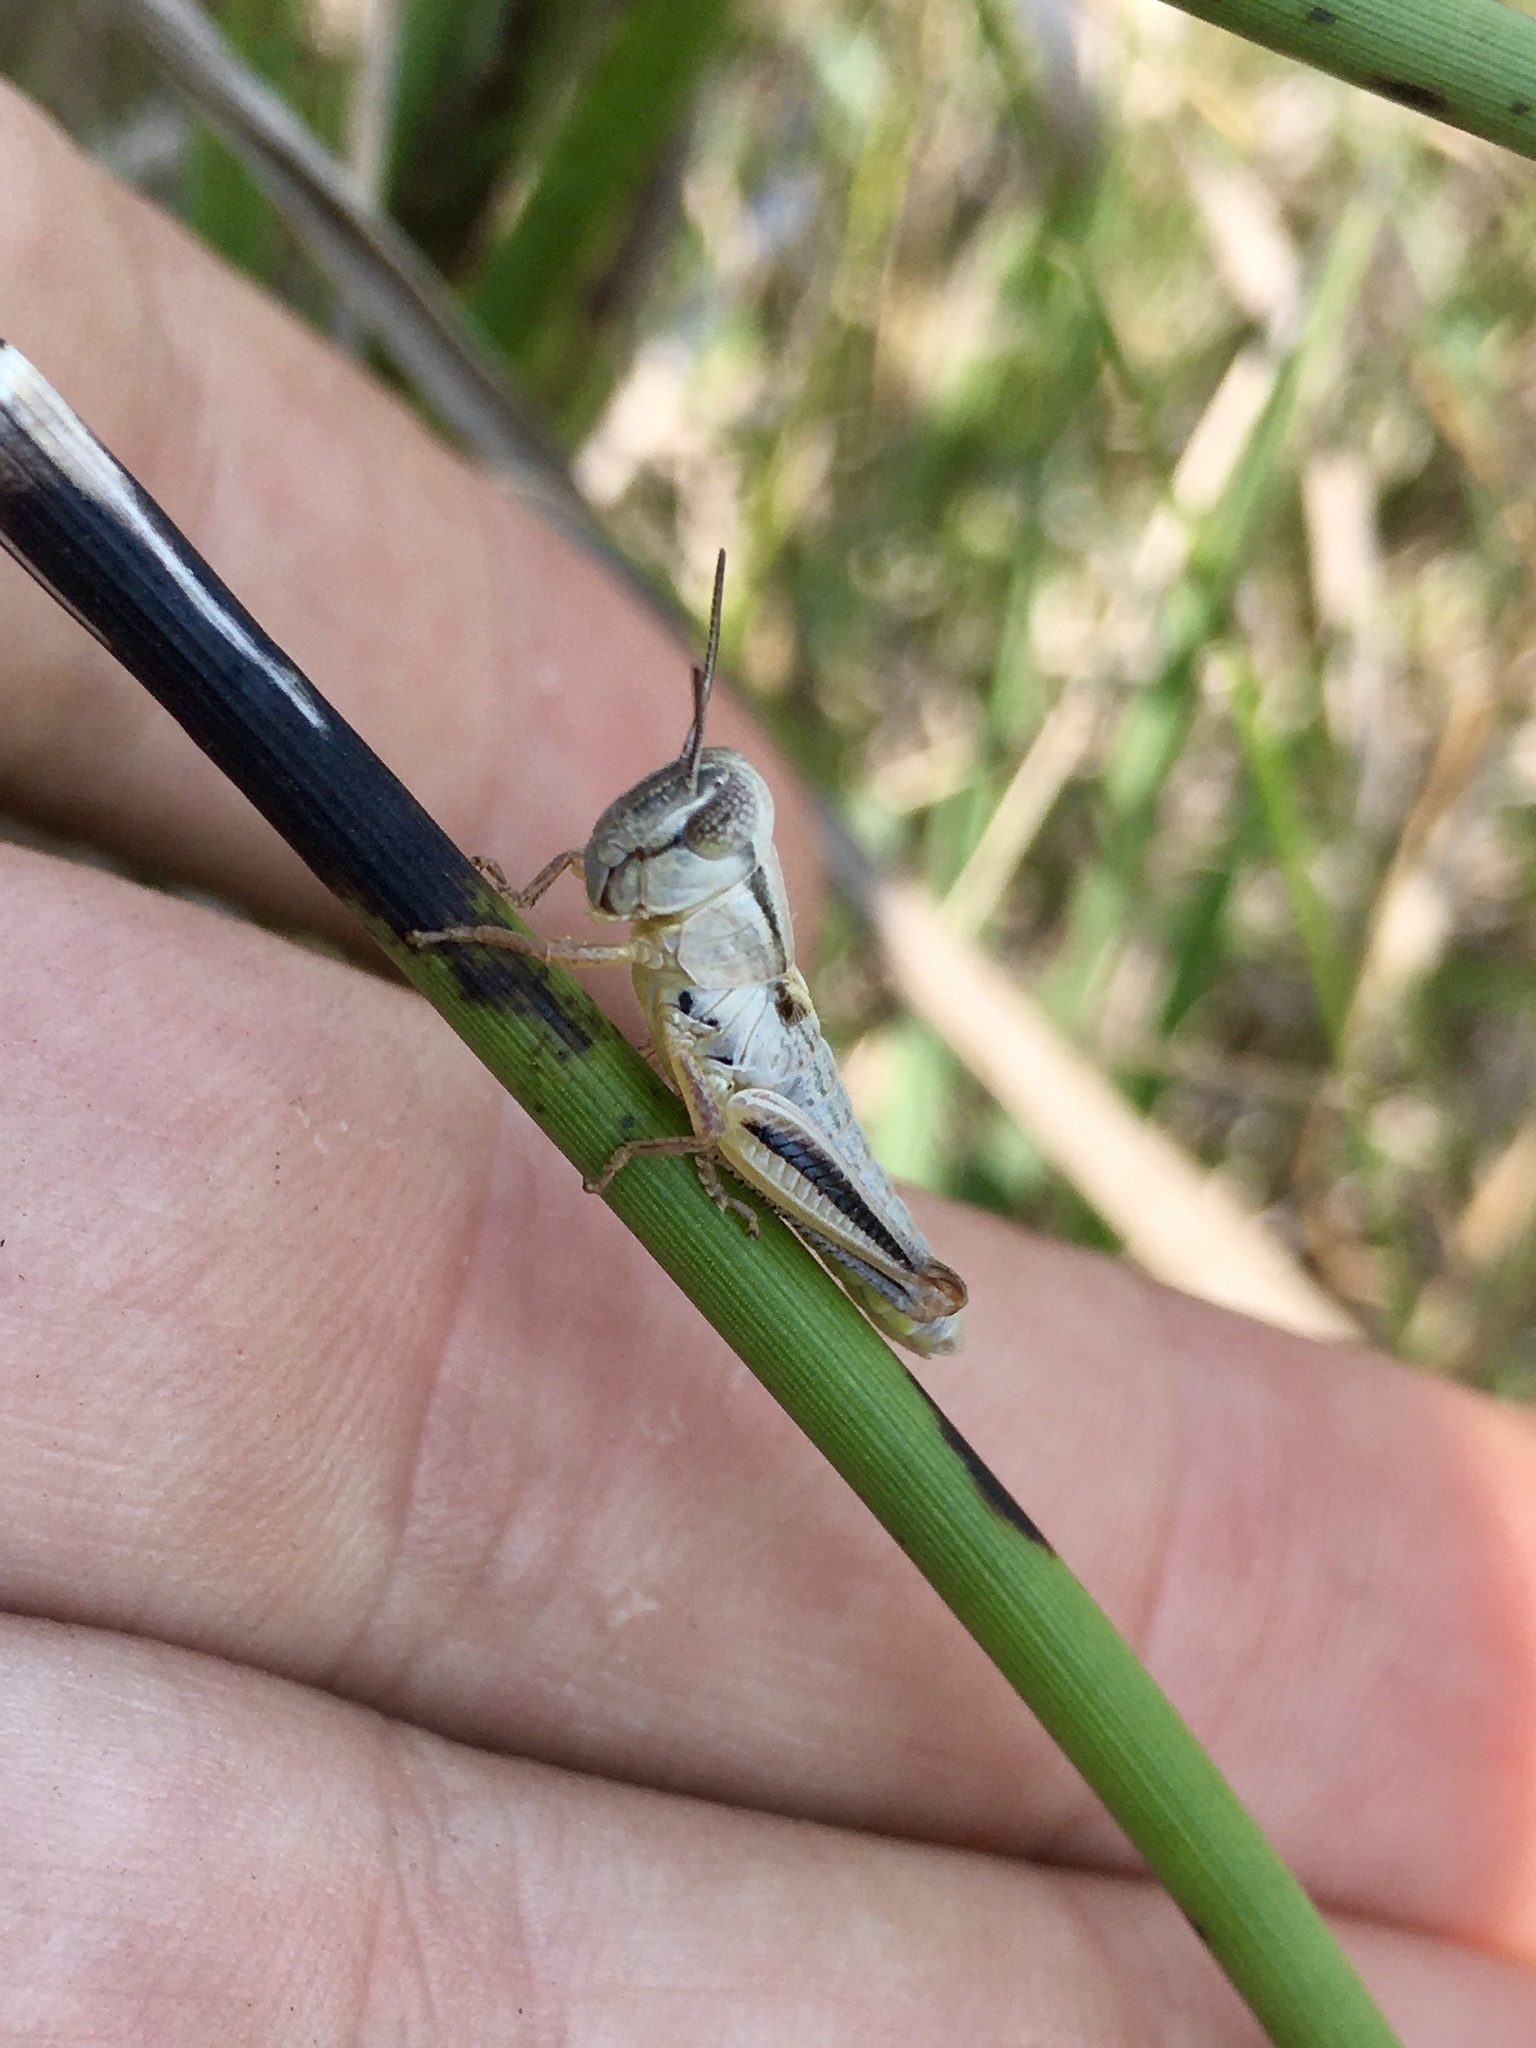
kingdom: Animalia
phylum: Arthropoda
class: Insecta
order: Orthoptera
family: Acrididae
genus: Phoetaliotes
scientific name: Phoetaliotes nebrascensis
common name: Large-headed grasshopper
